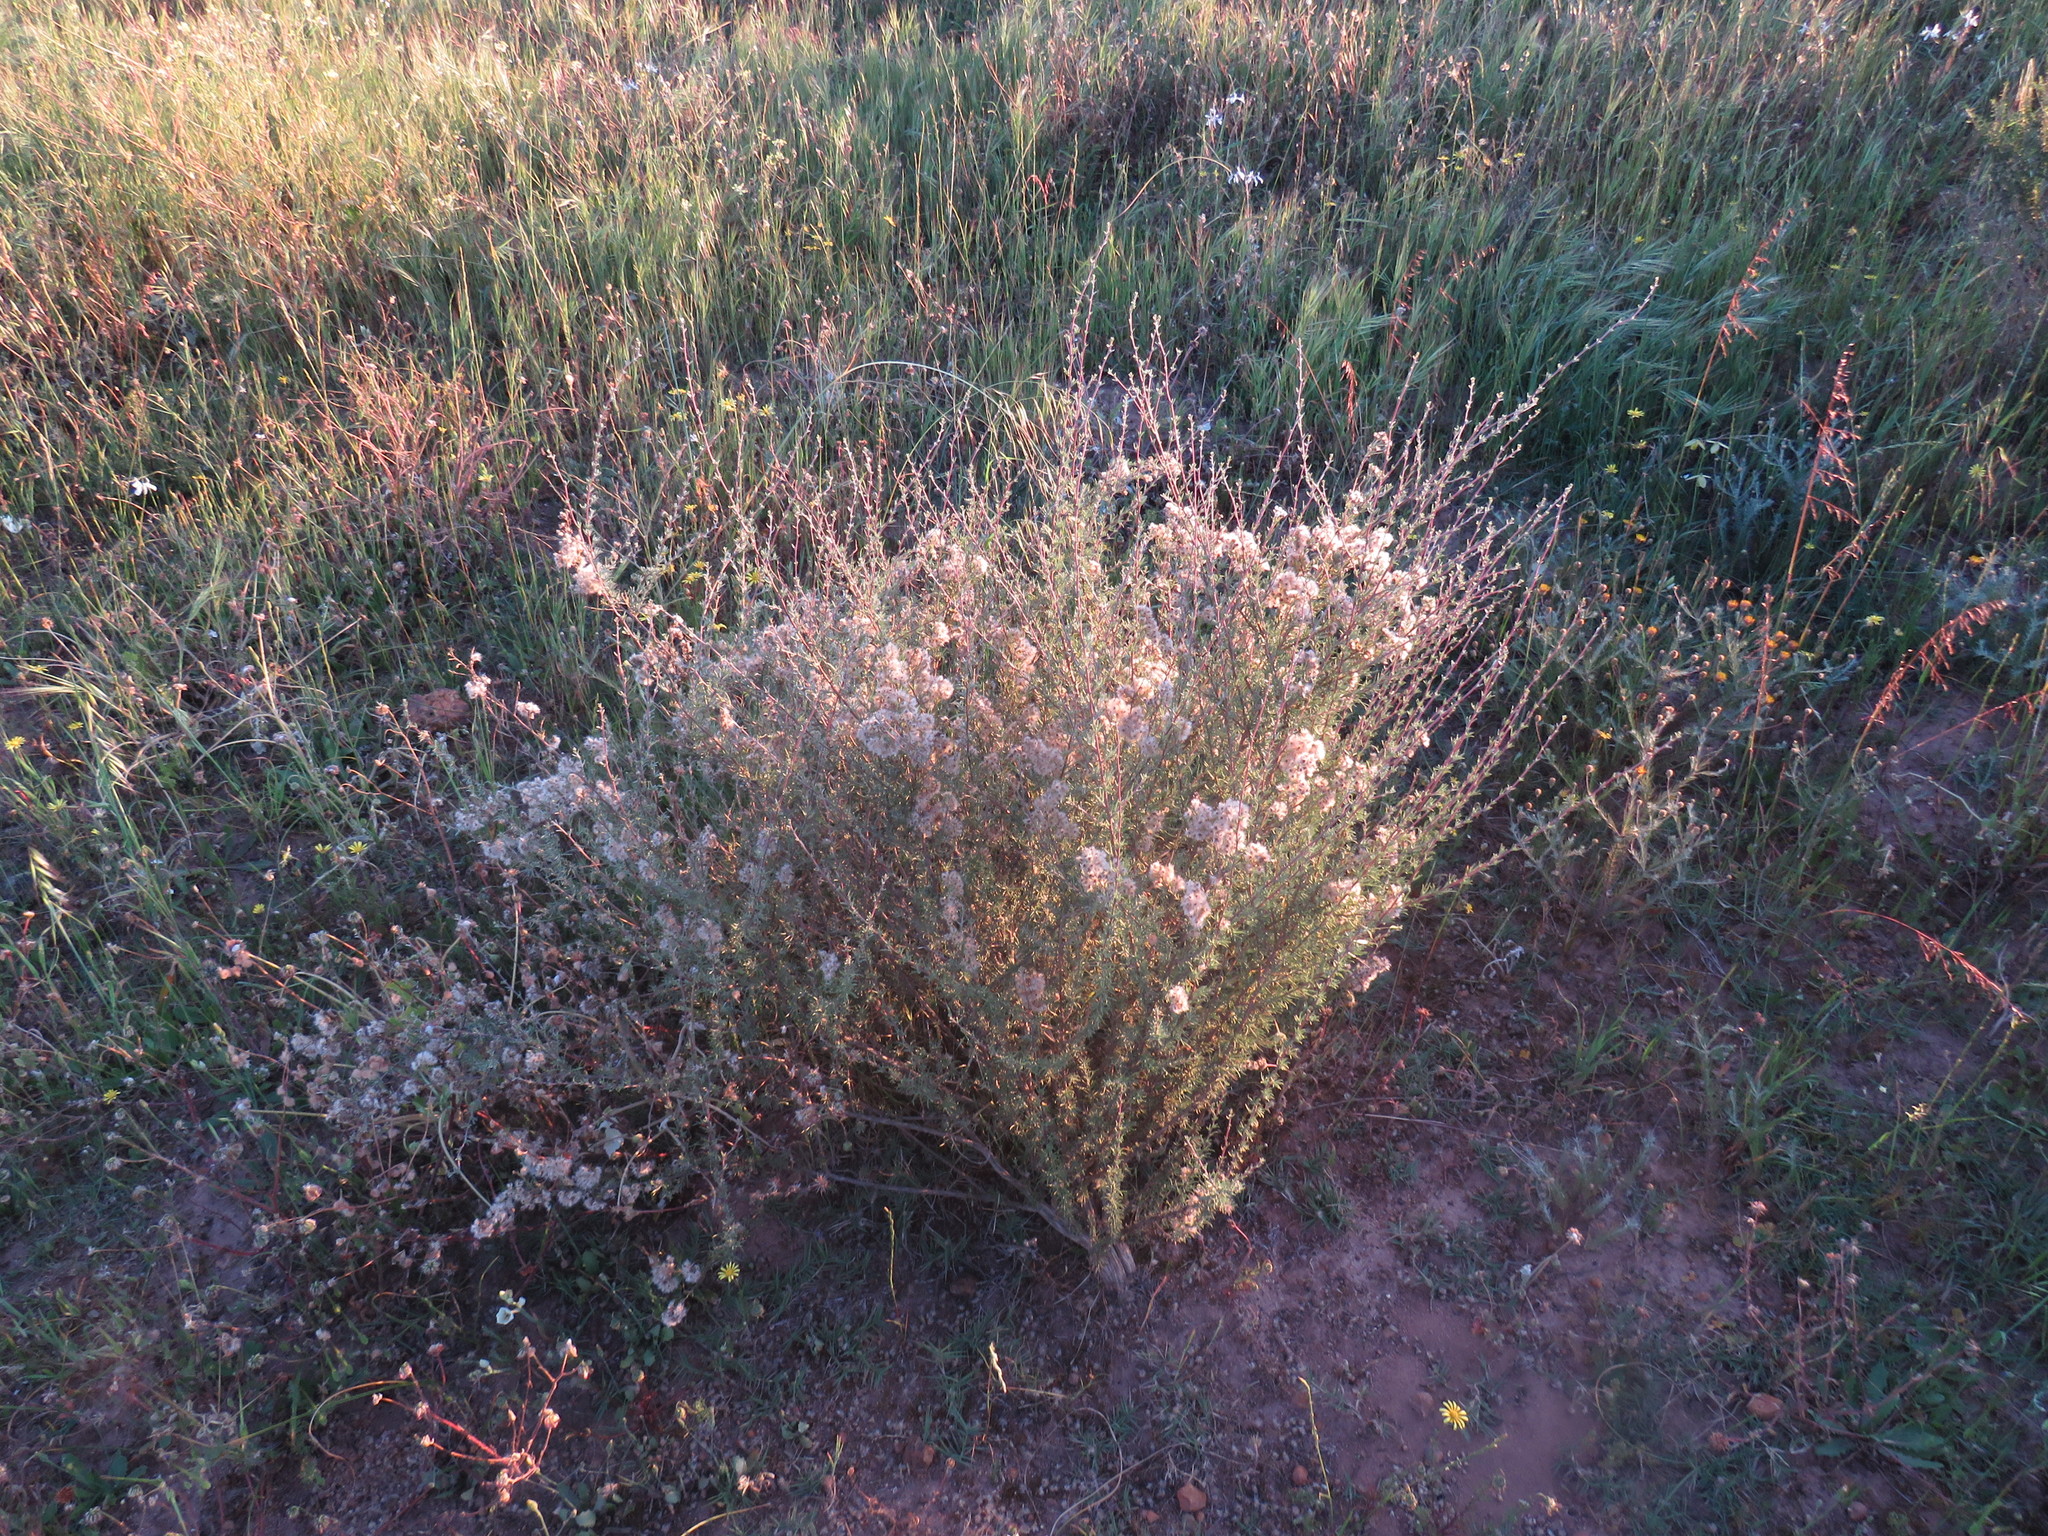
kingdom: Plantae
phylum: Tracheophyta
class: Magnoliopsida
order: Asterales
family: Asteraceae
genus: Eriocephalus
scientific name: Eriocephalus africanus
